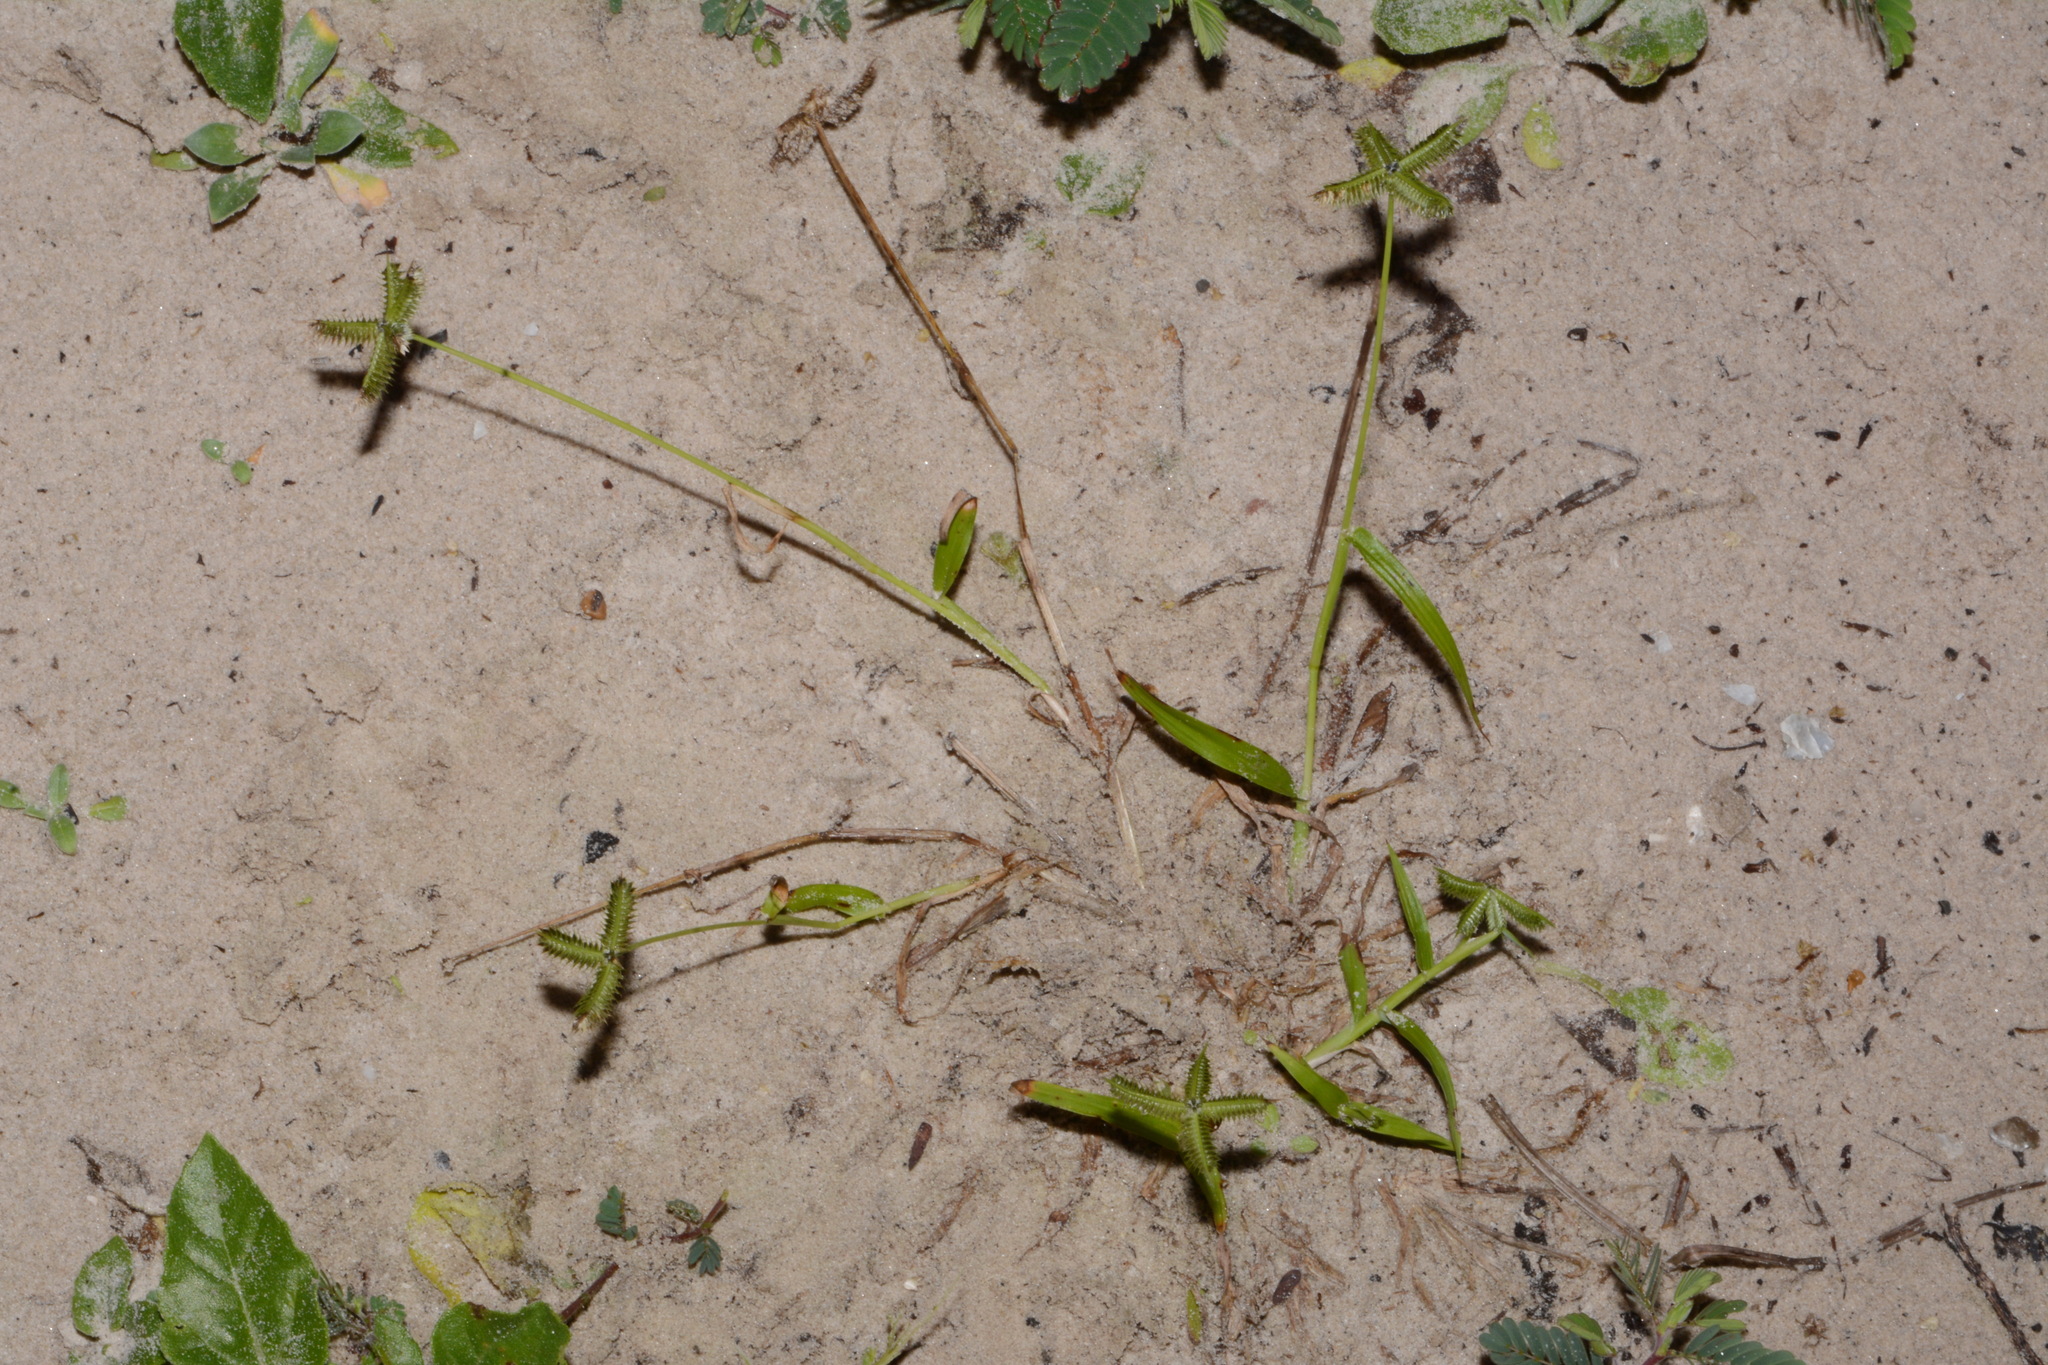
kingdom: Plantae
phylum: Tracheophyta
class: Liliopsida
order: Poales
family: Poaceae
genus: Dactyloctenium
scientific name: Dactyloctenium aegyptium
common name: Egyptian grass
